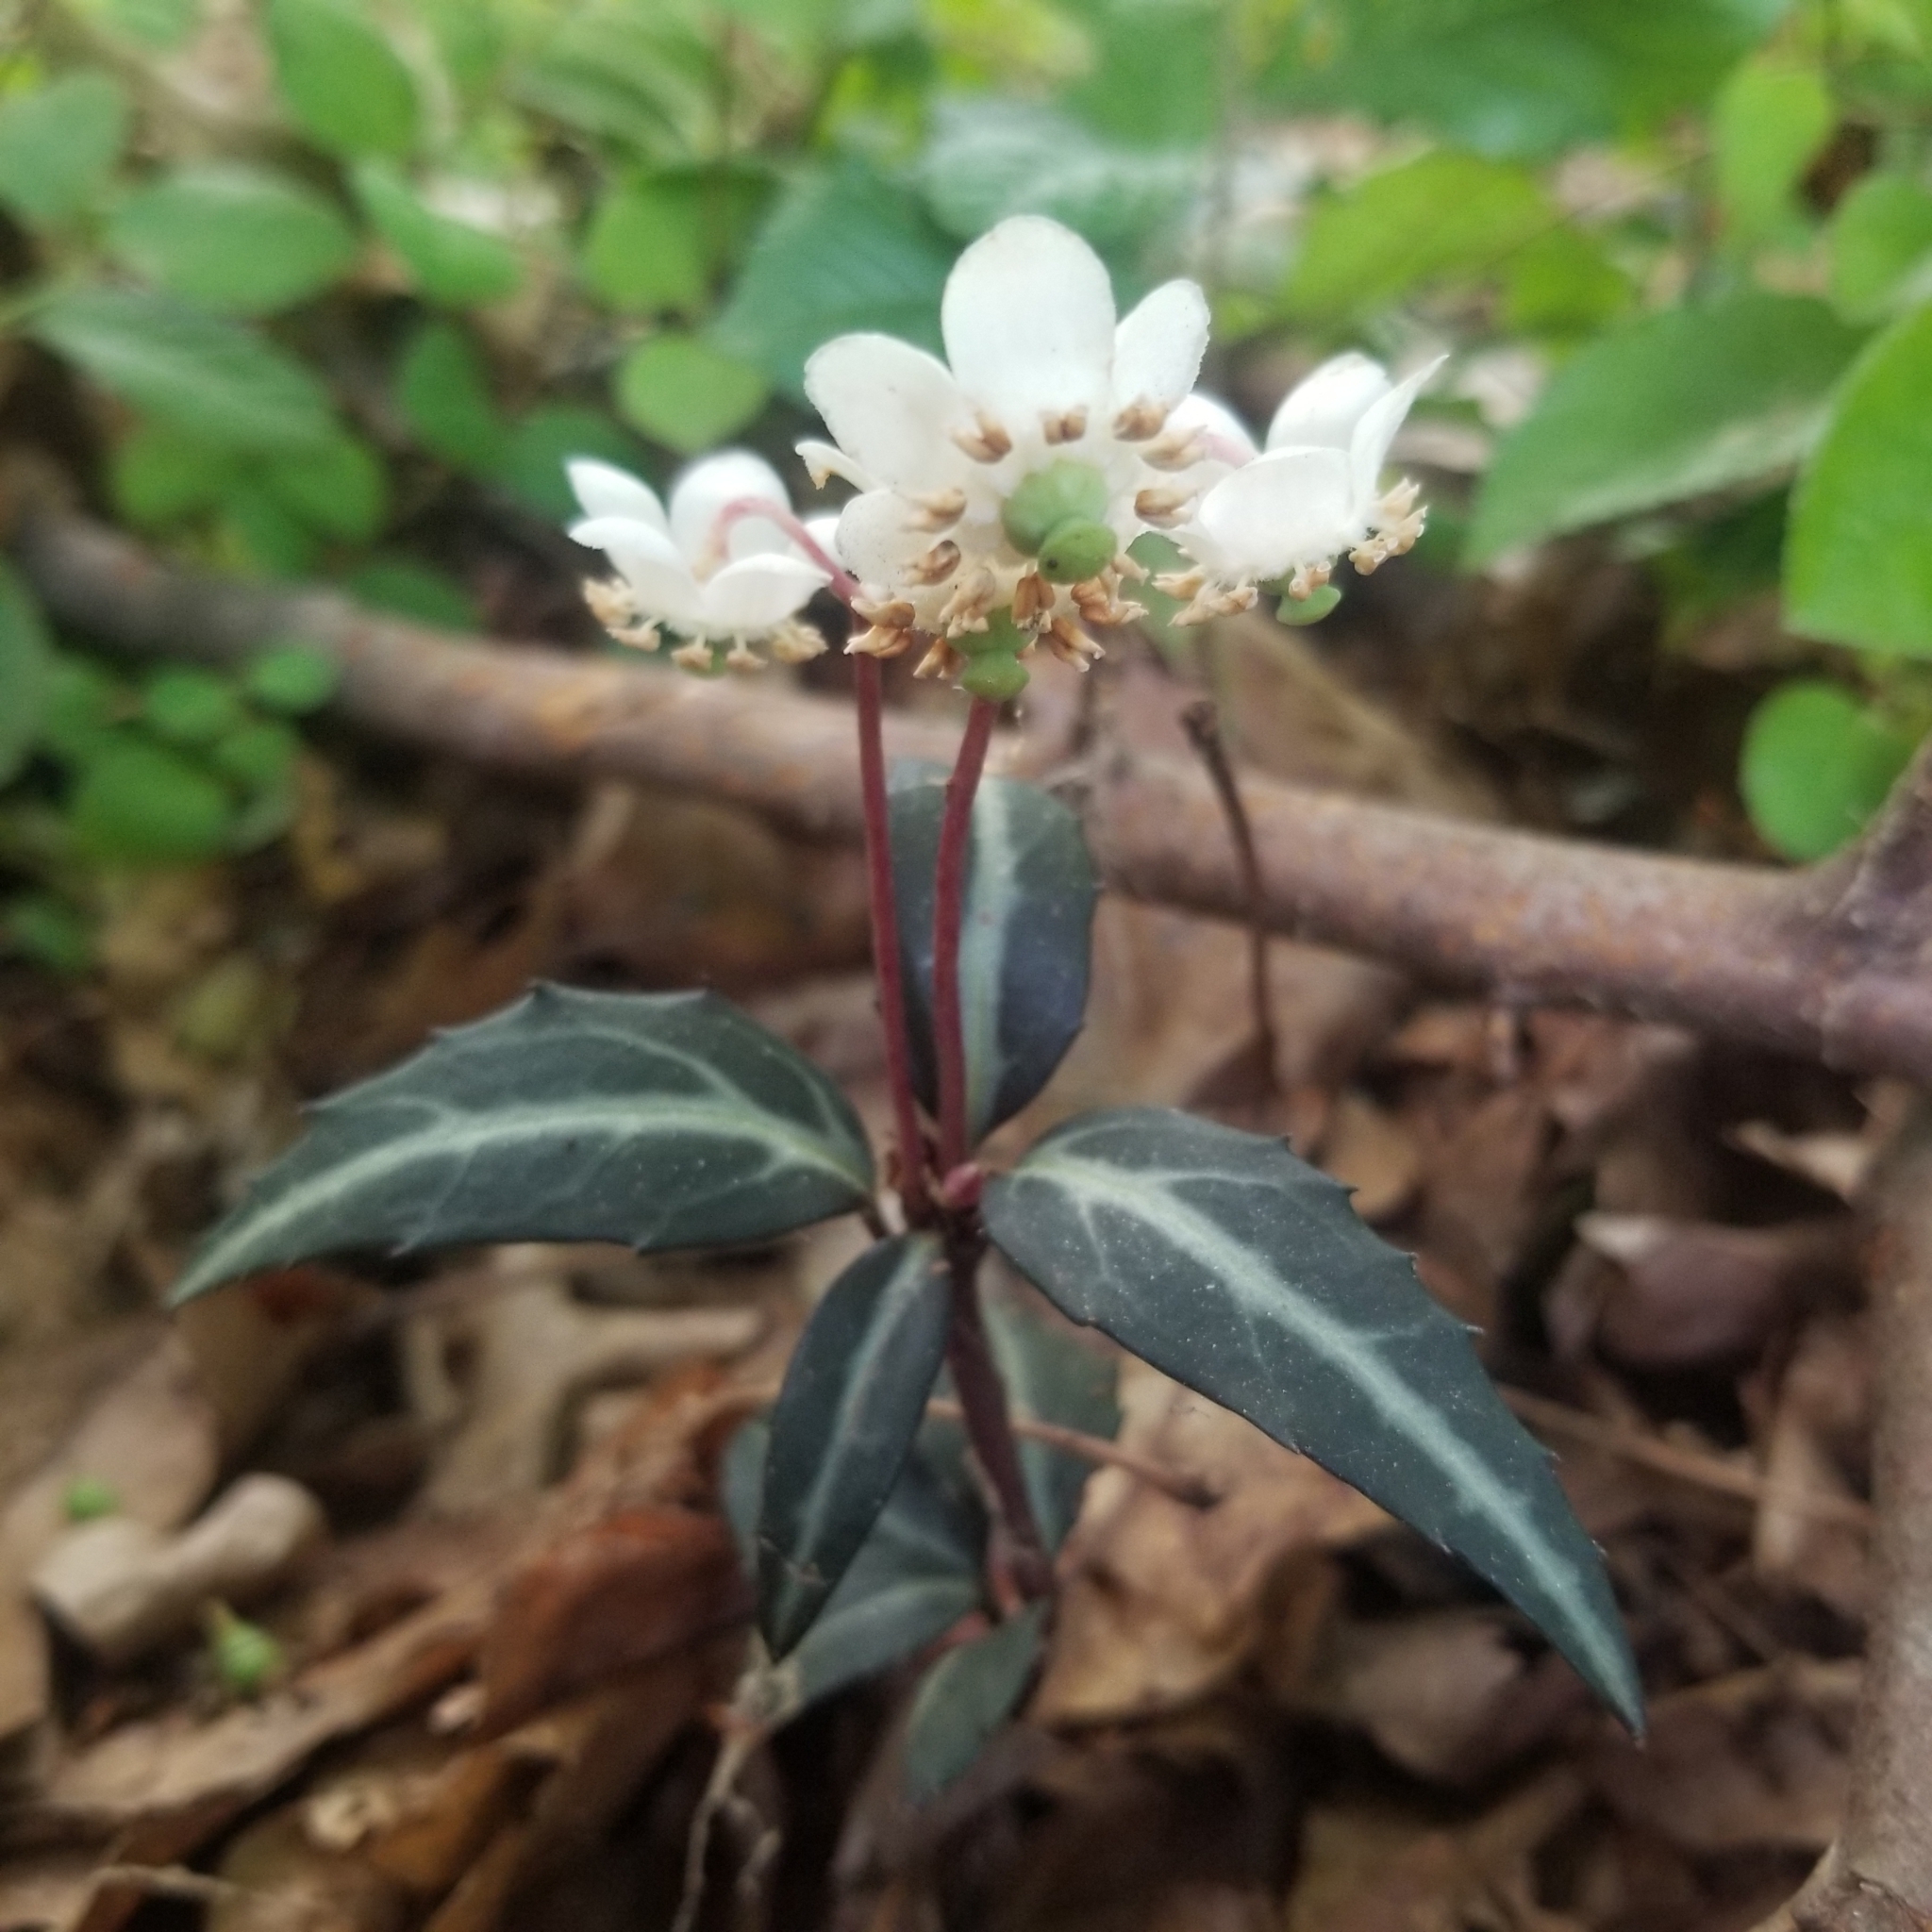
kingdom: Plantae
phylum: Tracheophyta
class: Magnoliopsida
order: Ericales
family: Ericaceae
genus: Chimaphila
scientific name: Chimaphila maculata
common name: Spotted pipsissewa
